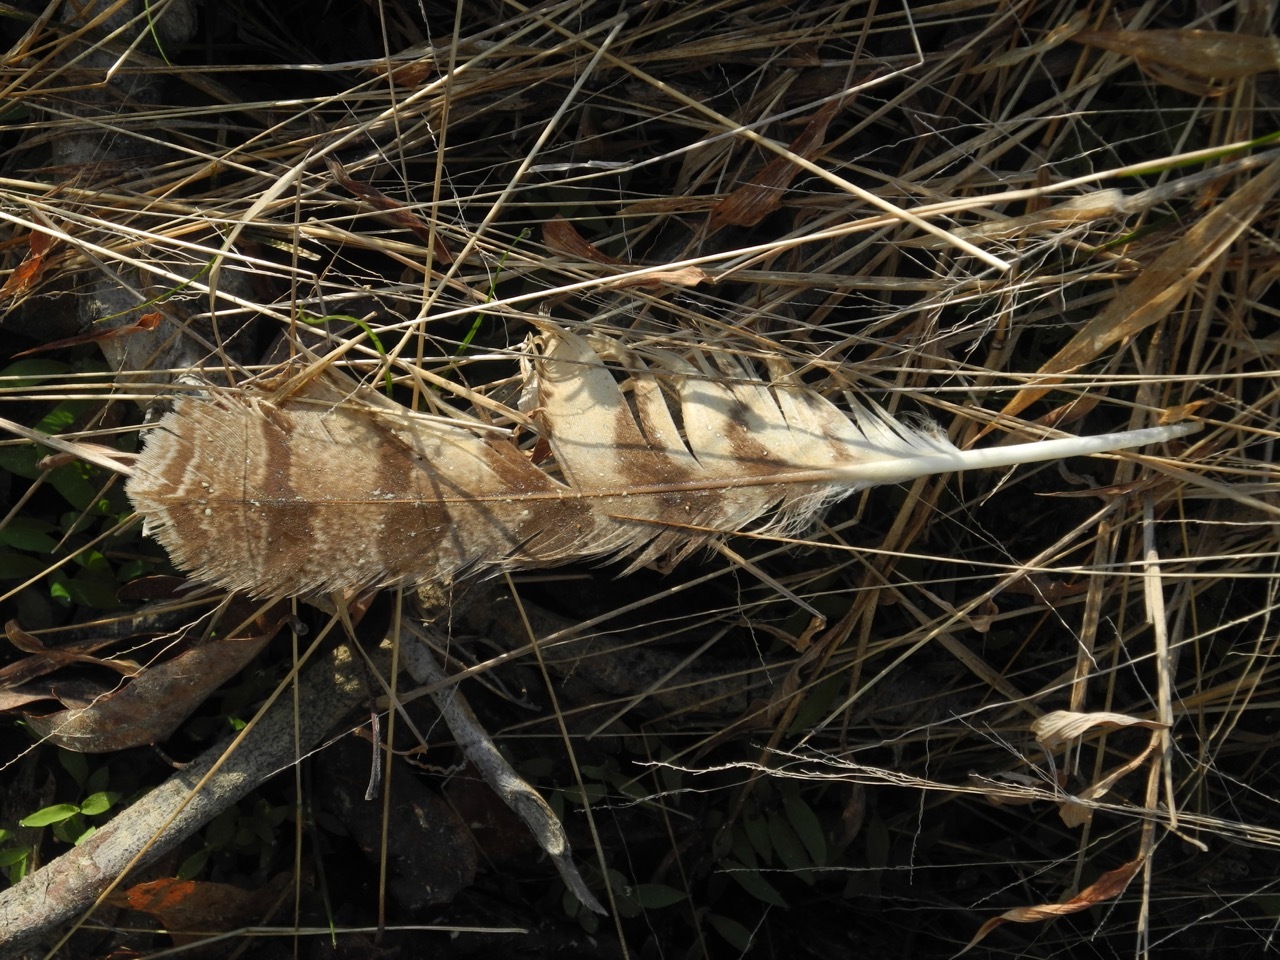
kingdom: Animalia
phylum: Chordata
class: Aves
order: Strigiformes
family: Strigidae
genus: Bubo
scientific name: Bubo virginianus
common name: Great horned owl
